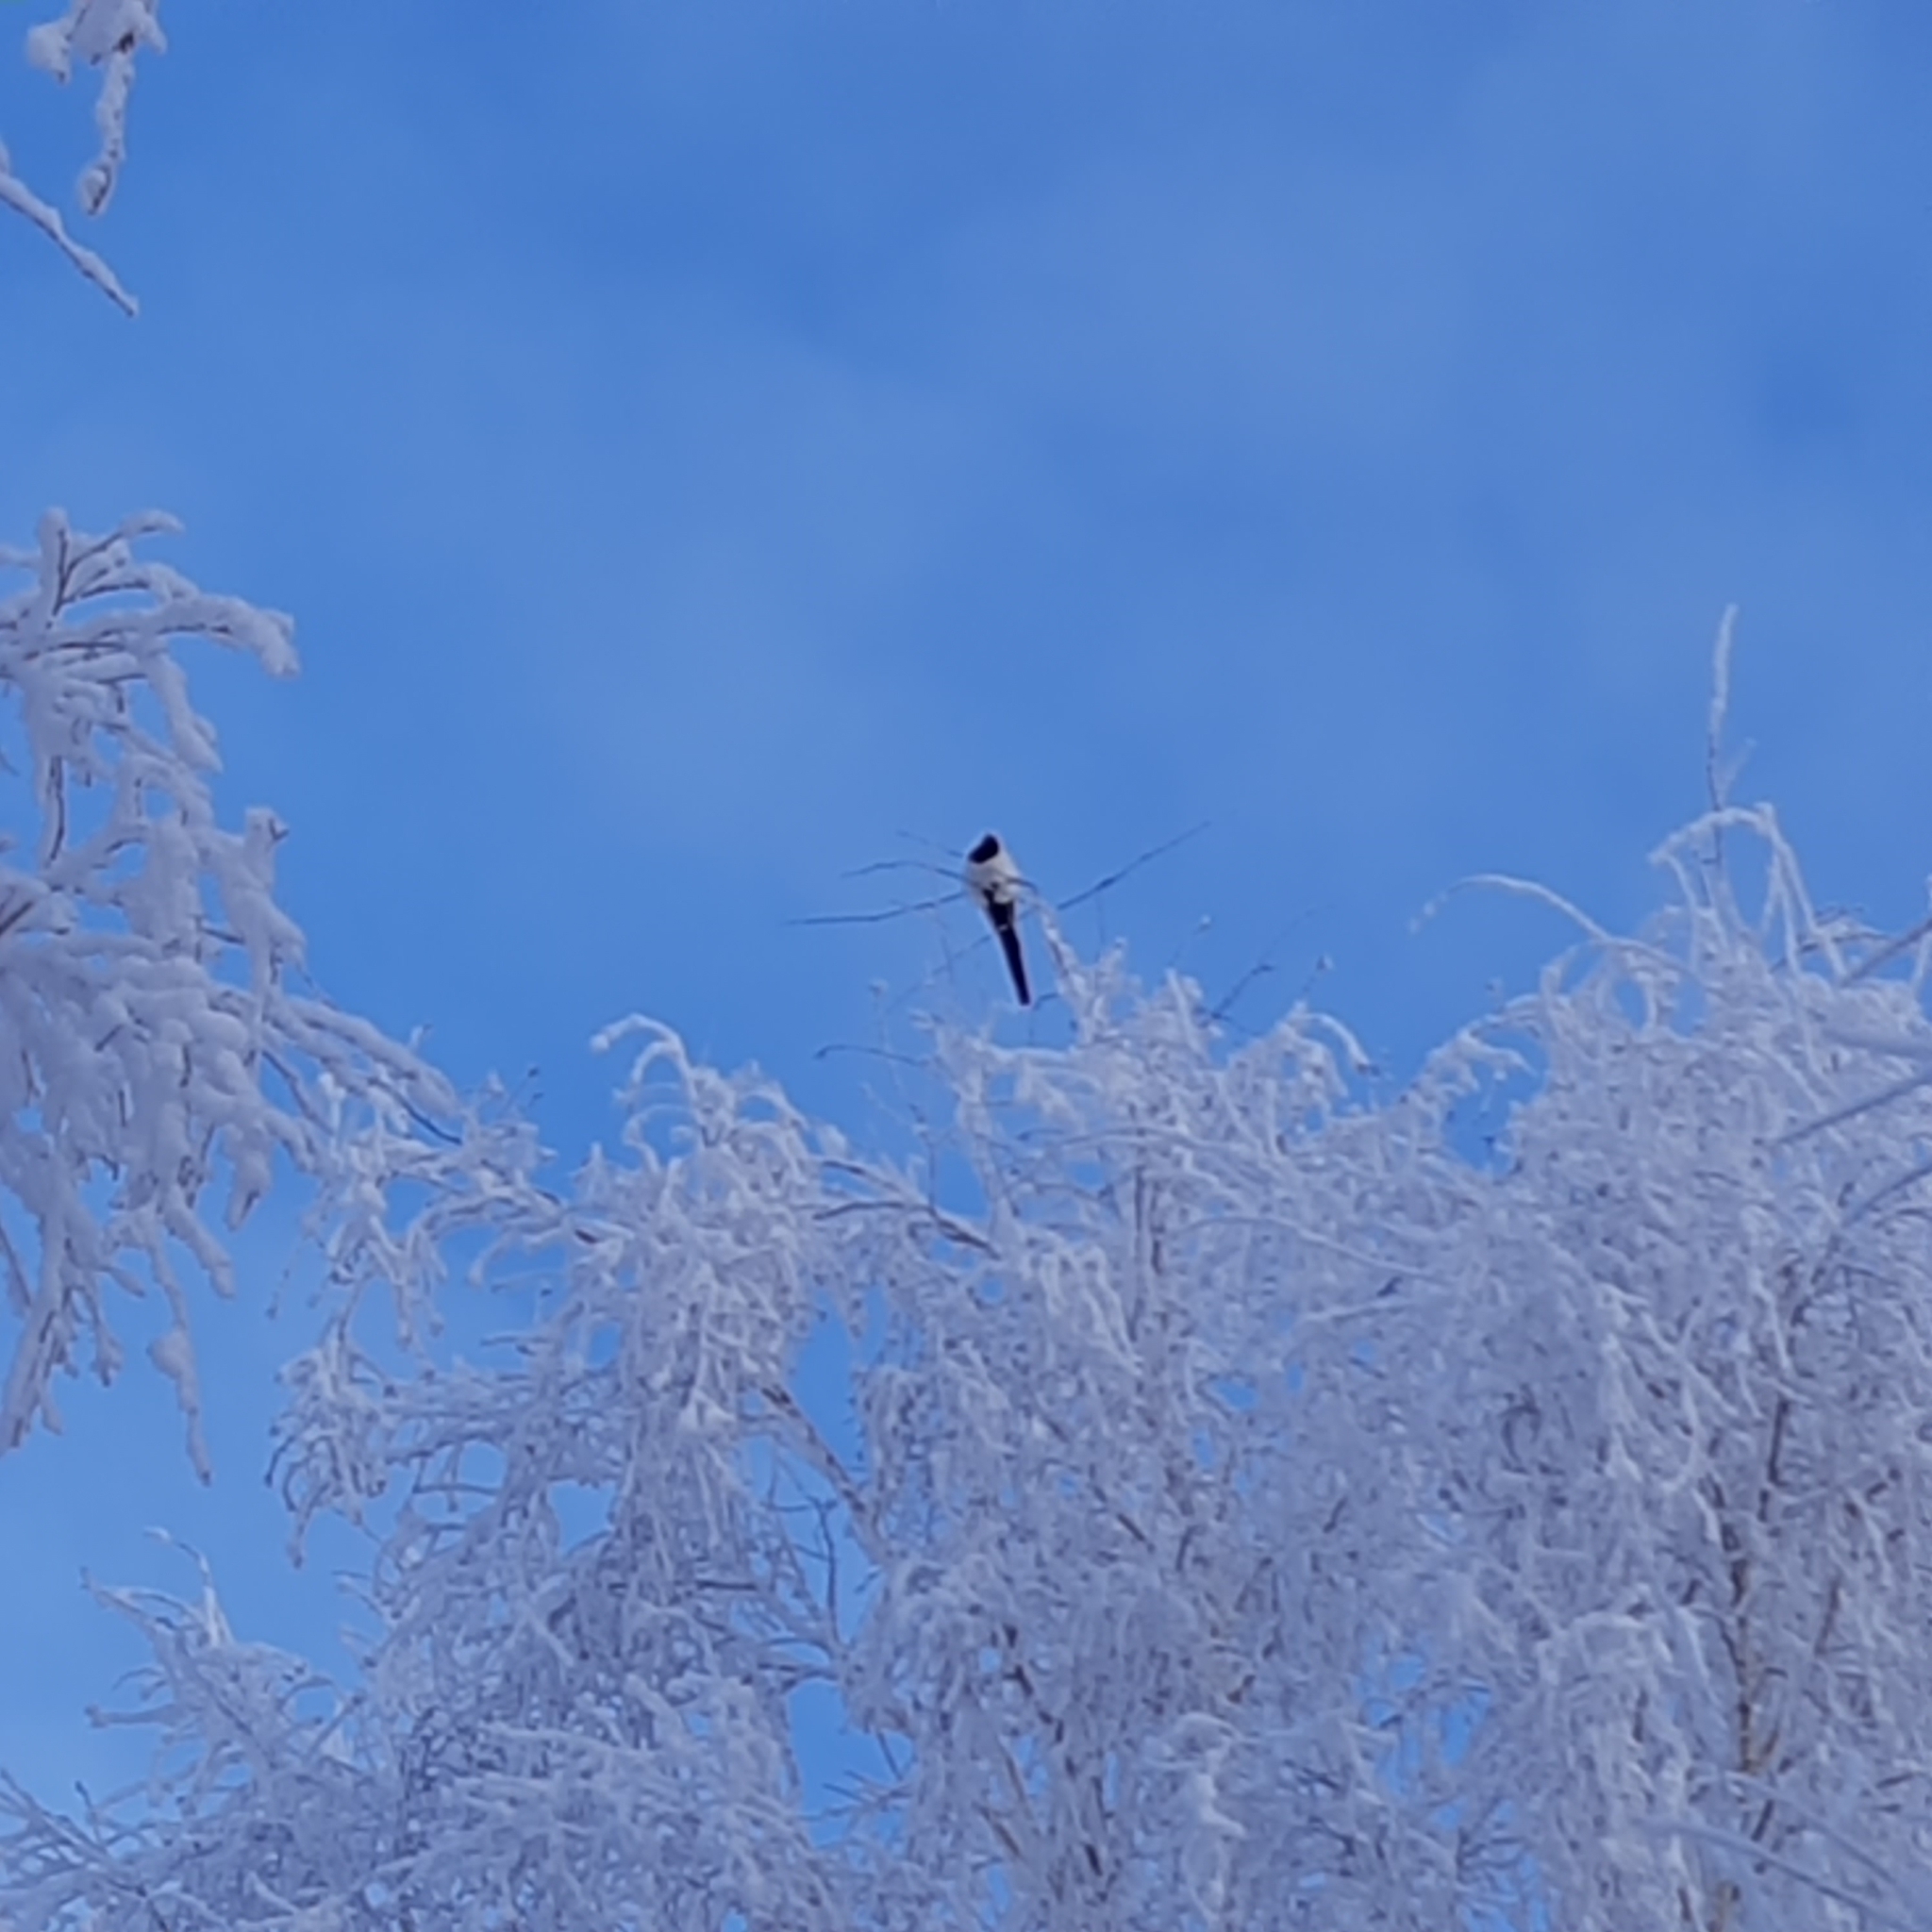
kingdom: Animalia
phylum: Chordata
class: Aves
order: Passeriformes
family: Corvidae
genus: Pica
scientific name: Pica pica
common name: Eurasian magpie
